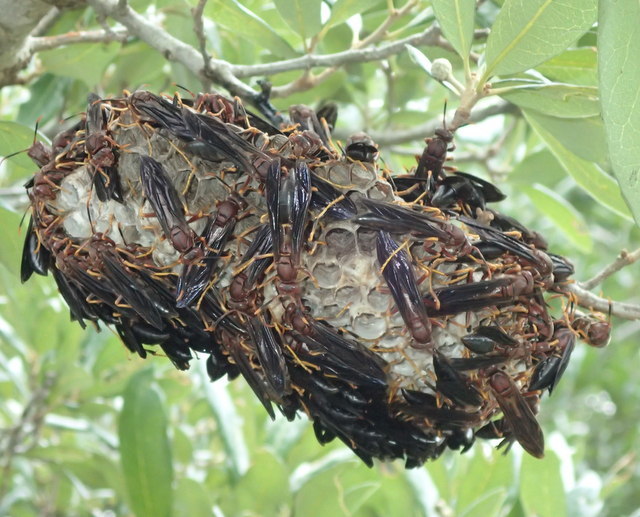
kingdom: Animalia
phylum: Arthropoda
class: Insecta
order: Hymenoptera
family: Eumenidae
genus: Polistes
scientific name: Polistes annularis
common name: Ringed paper wasp
